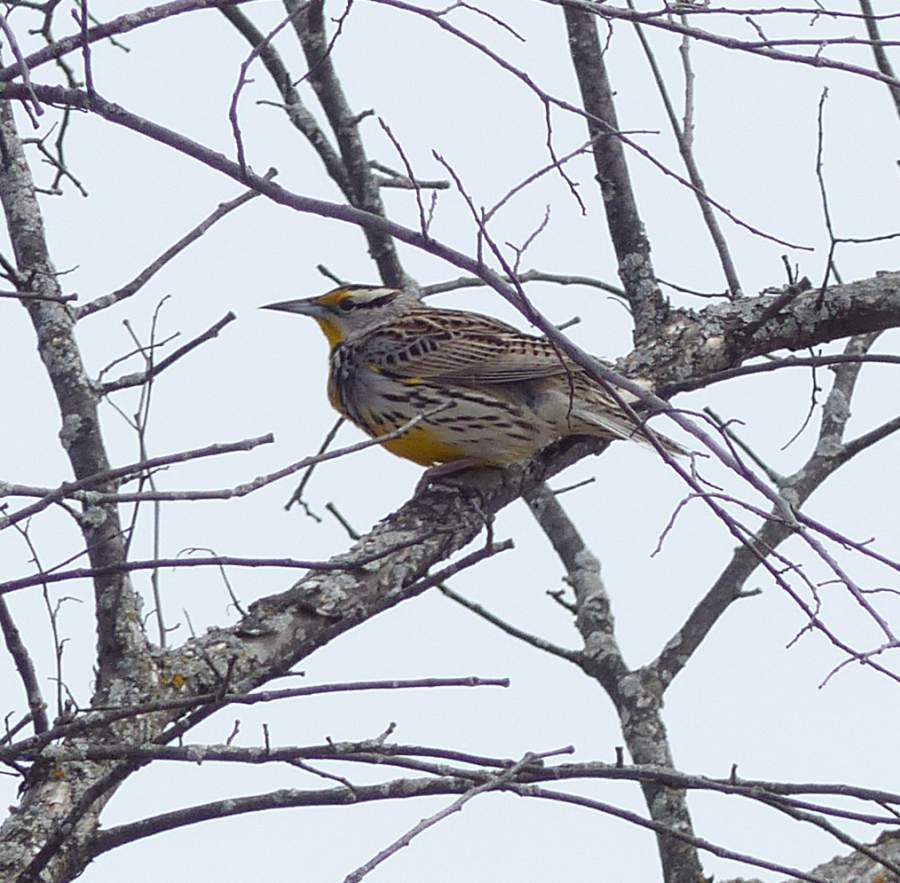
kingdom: Animalia
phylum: Chordata
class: Aves
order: Passeriformes
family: Icteridae
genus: Sturnella
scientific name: Sturnella magna
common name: Eastern meadowlark
